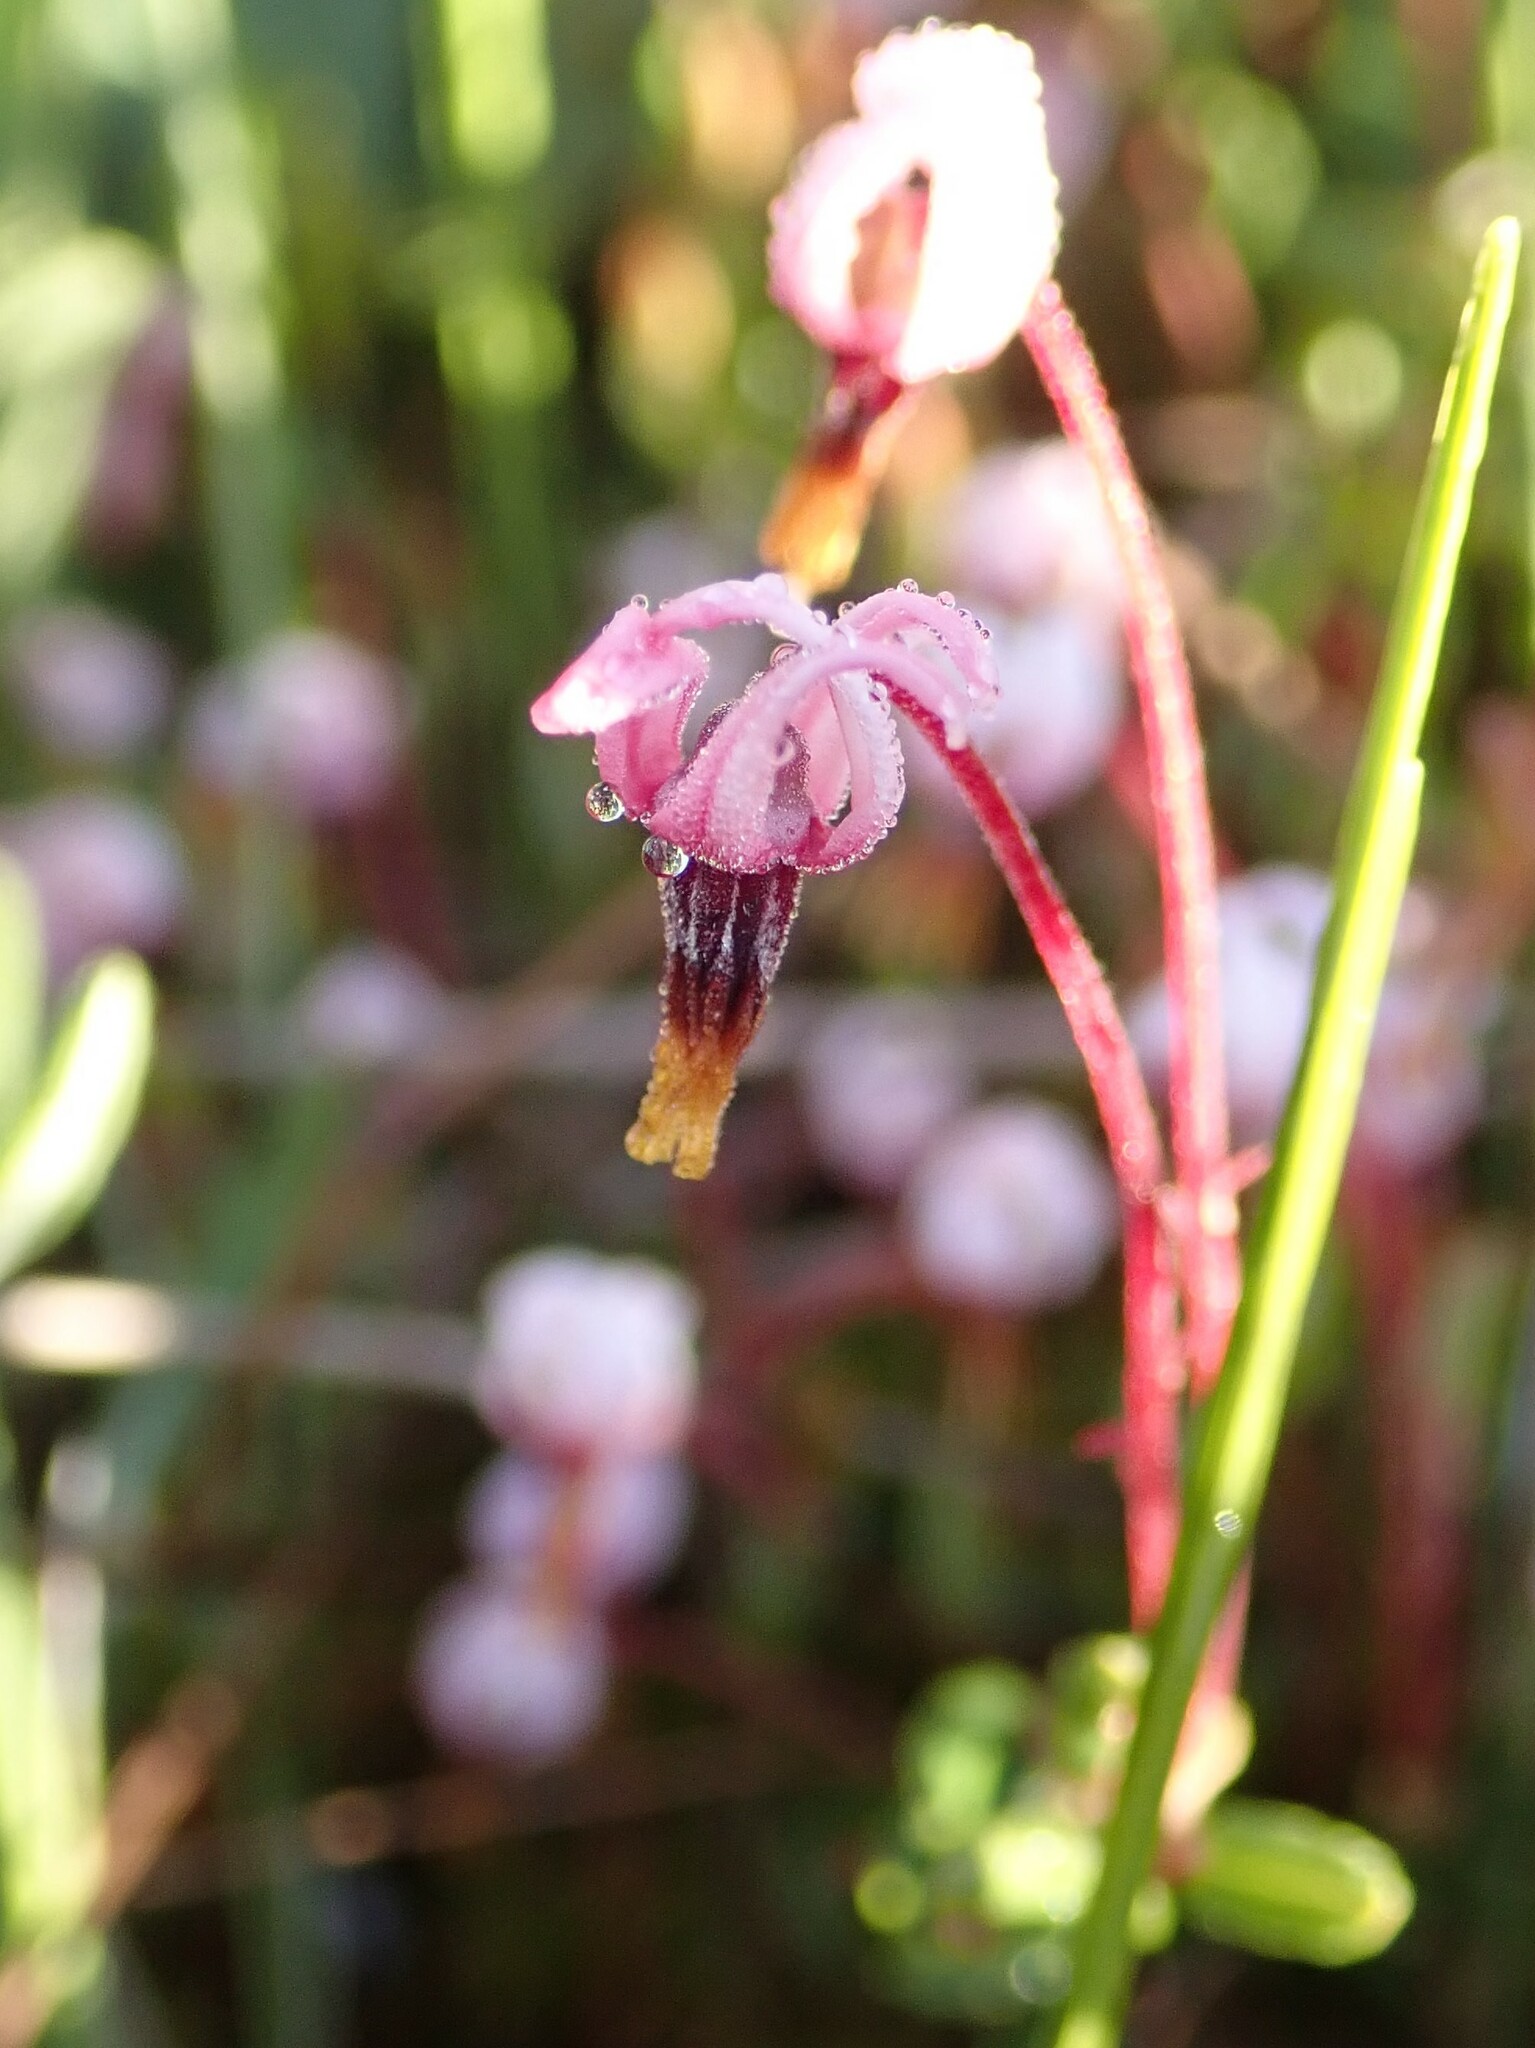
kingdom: Plantae
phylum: Tracheophyta
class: Magnoliopsida
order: Ericales
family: Ericaceae
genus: Vaccinium
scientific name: Vaccinium oxycoccos
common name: Cranberry
